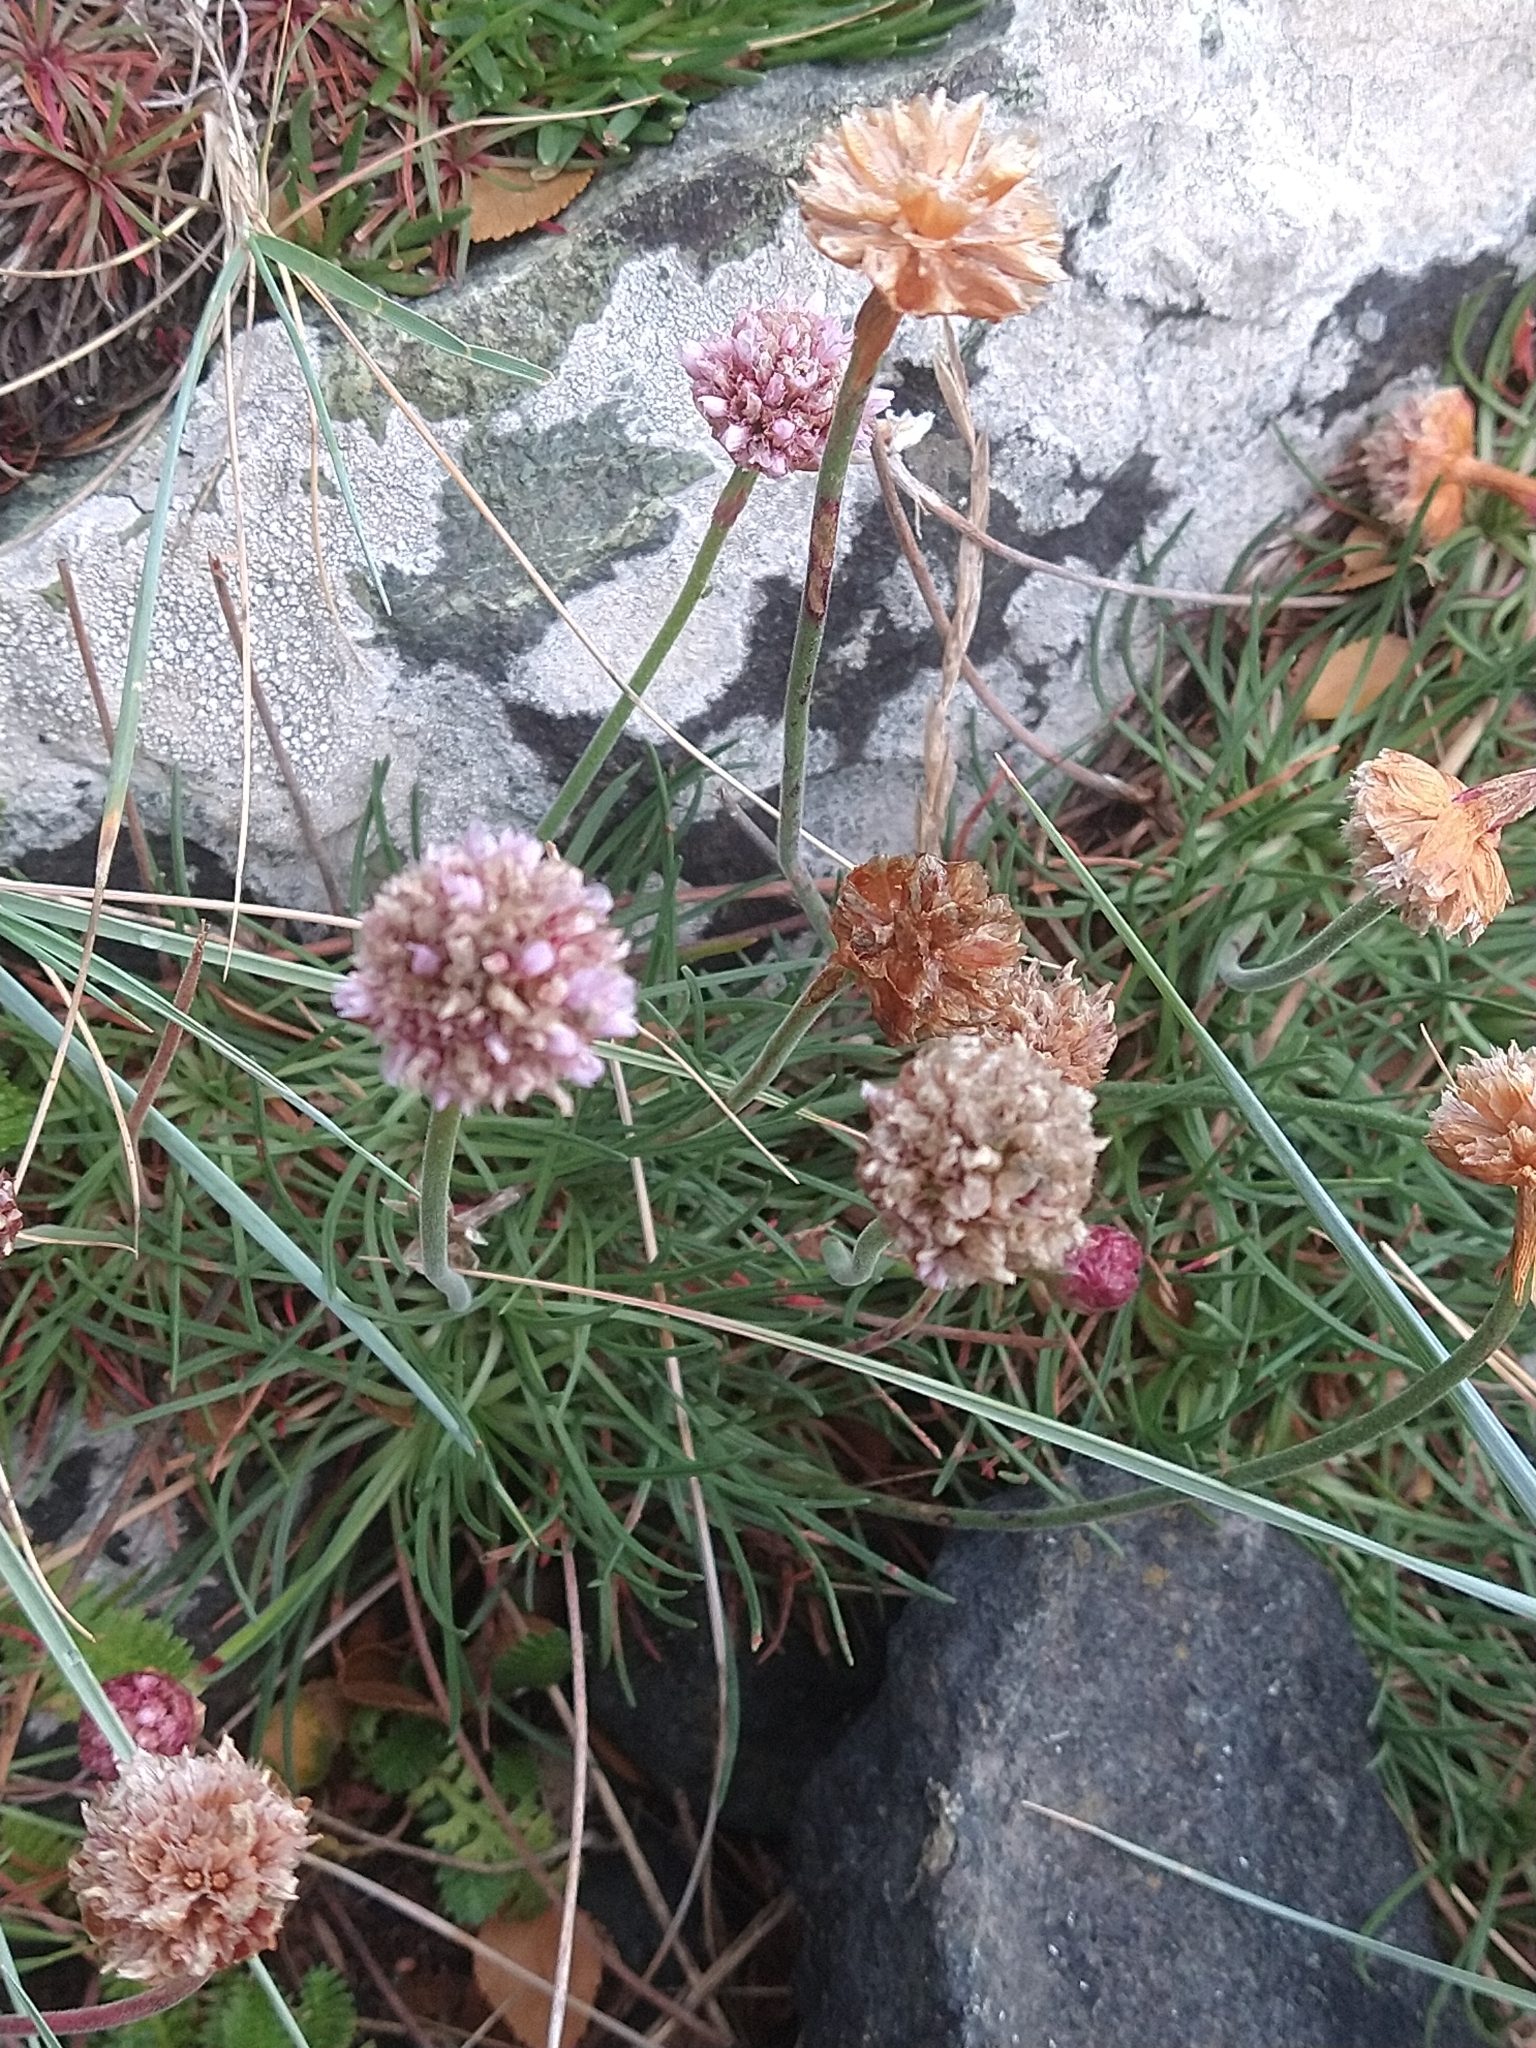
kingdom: Plantae
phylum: Tracheophyta
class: Magnoliopsida
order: Caryophyllales
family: Plumbaginaceae
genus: Armeria
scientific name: Armeria curvifolia
